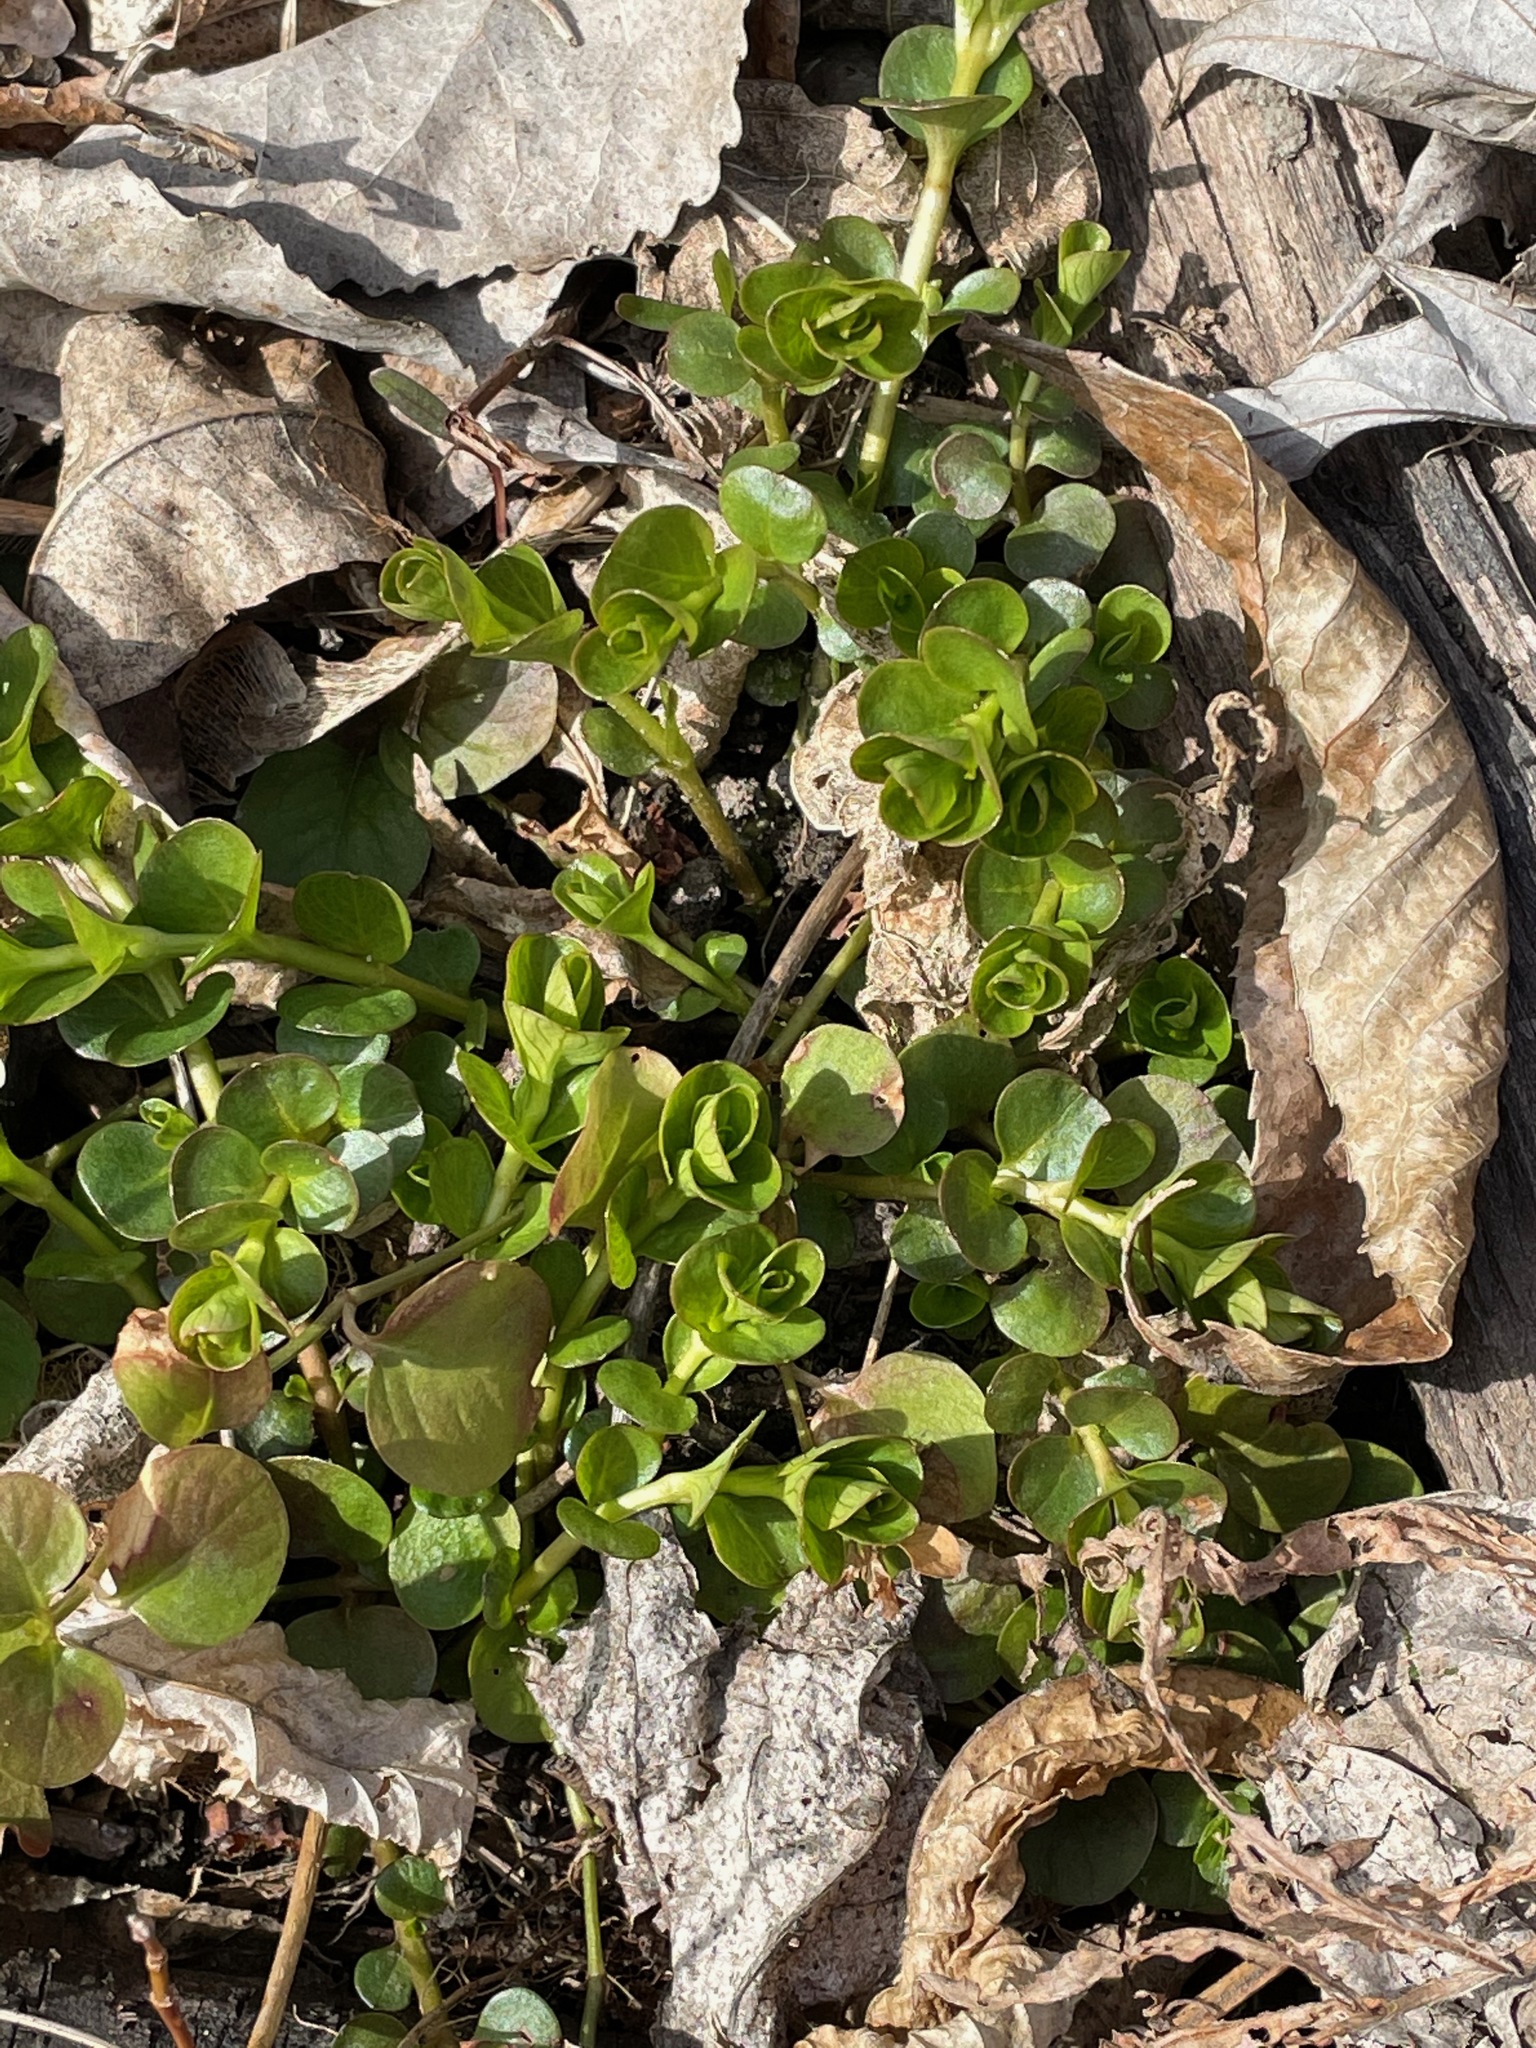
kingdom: Plantae
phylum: Tracheophyta
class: Magnoliopsida
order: Ericales
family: Primulaceae
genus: Lysimachia
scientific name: Lysimachia nummularia
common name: Moneywort
